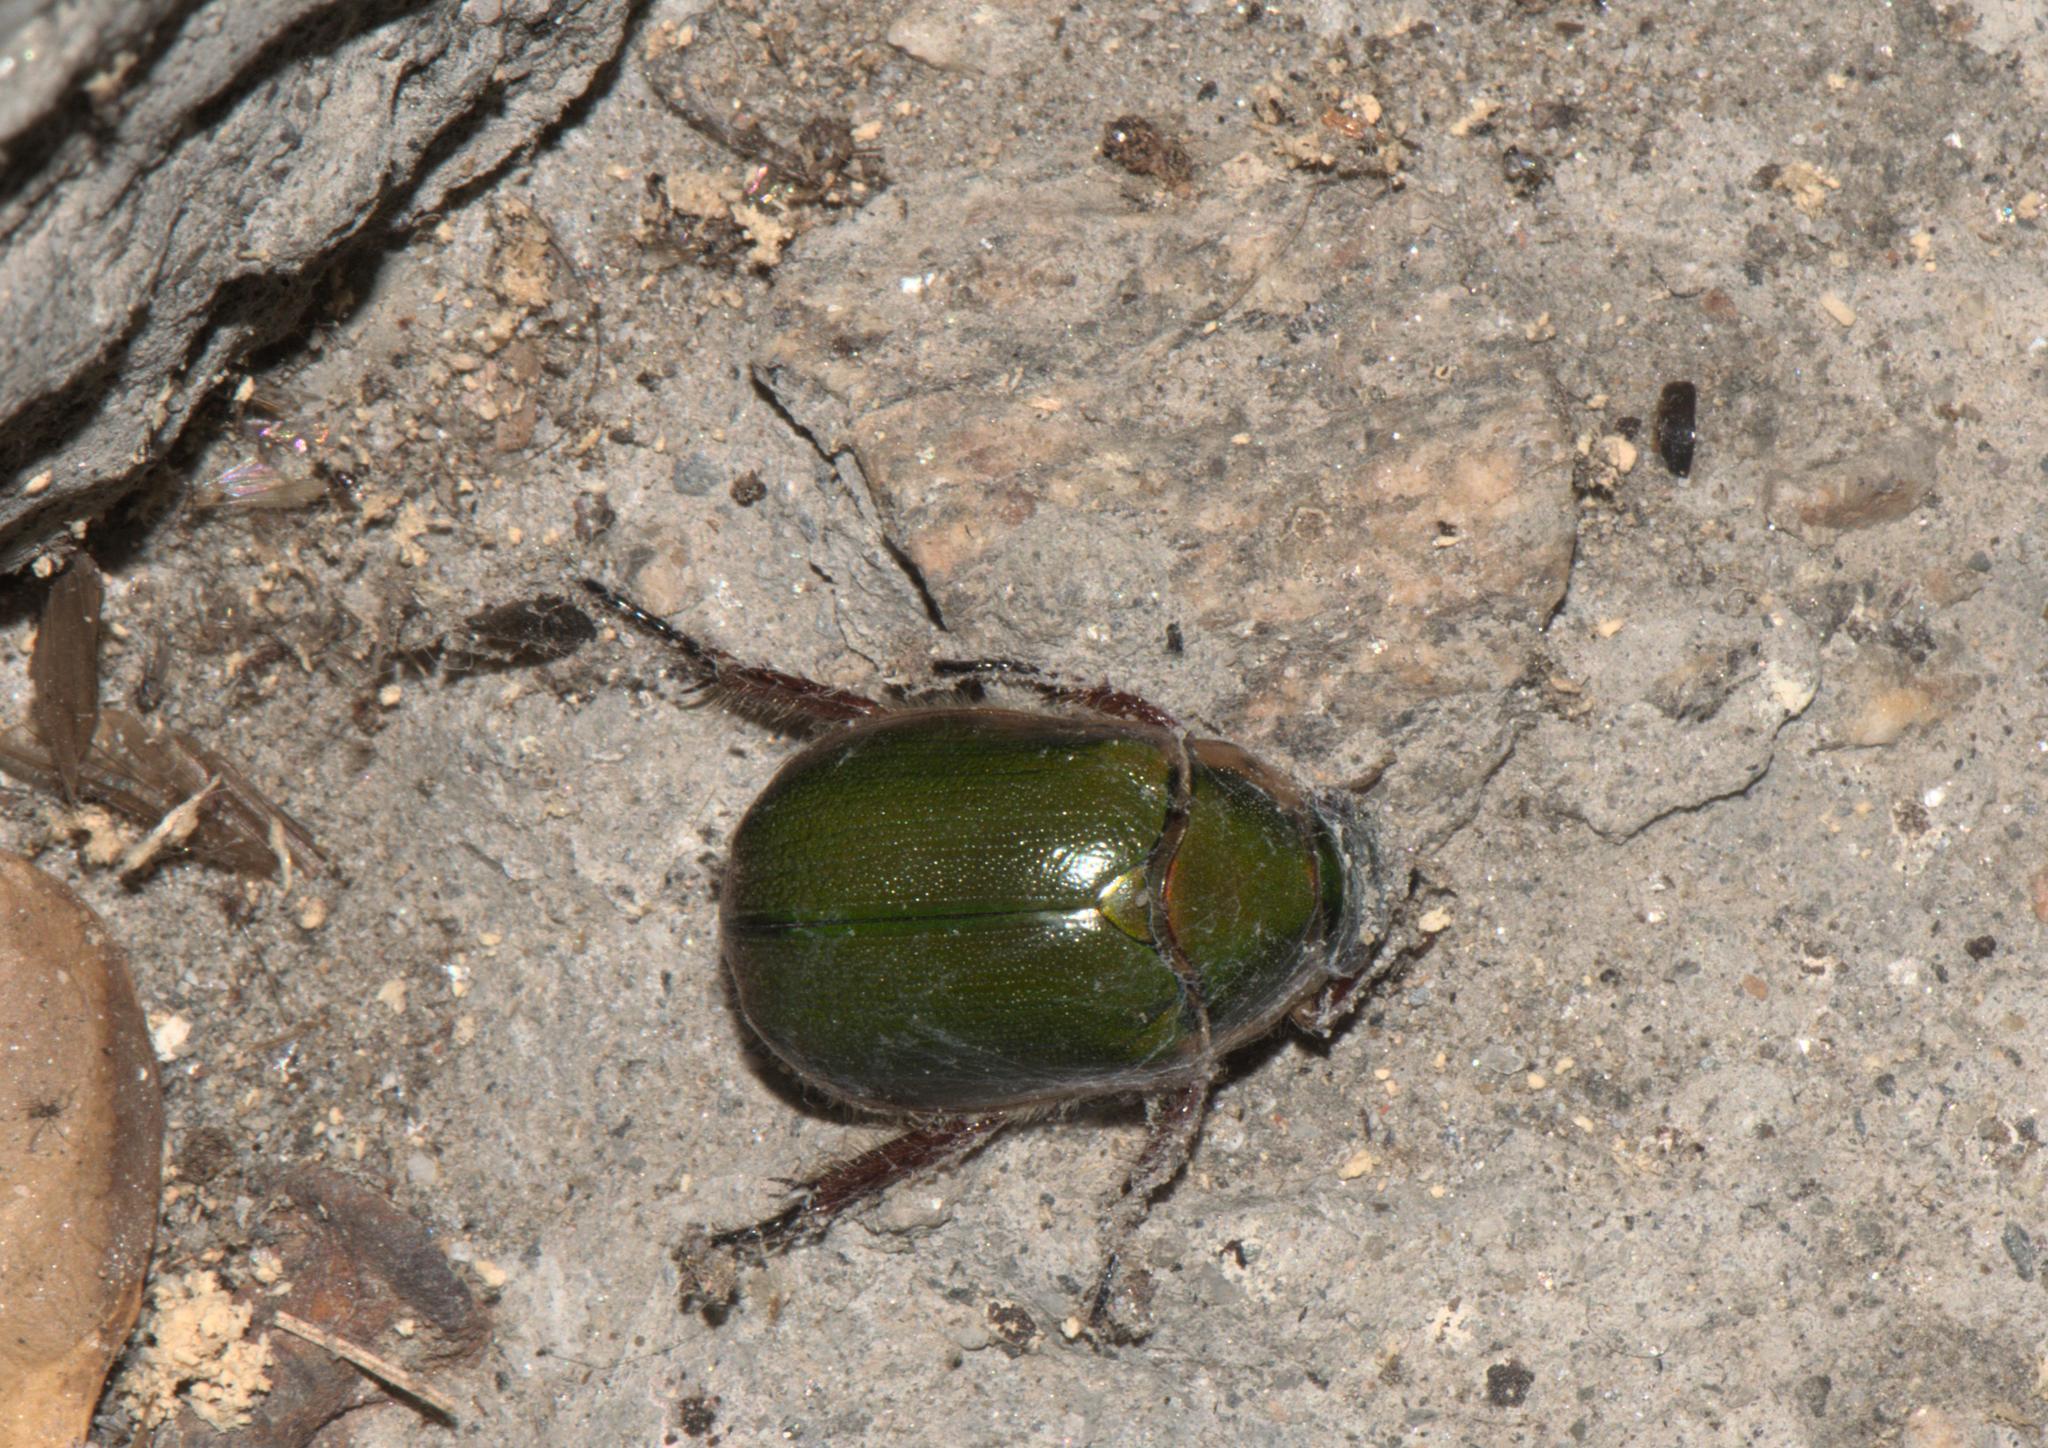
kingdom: Animalia
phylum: Arthropoda
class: Insecta
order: Coleoptera
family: Scarabaeidae
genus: Mimela
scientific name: Mimela passerinii
